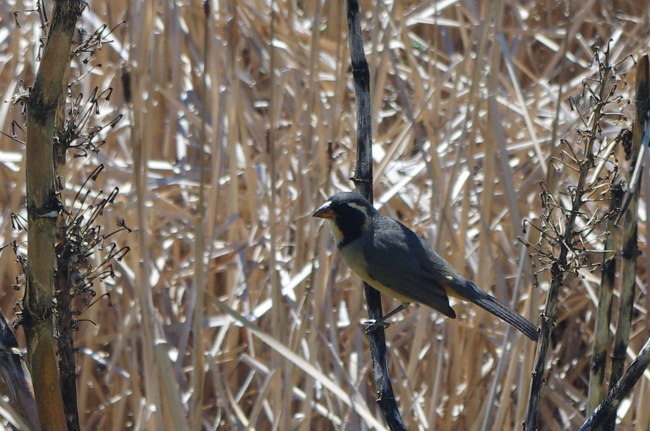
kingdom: Animalia
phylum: Chordata
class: Aves
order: Passeriformes
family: Thraupidae
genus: Saltator
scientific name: Saltator aurantiirostris
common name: Golden-billed saltator
